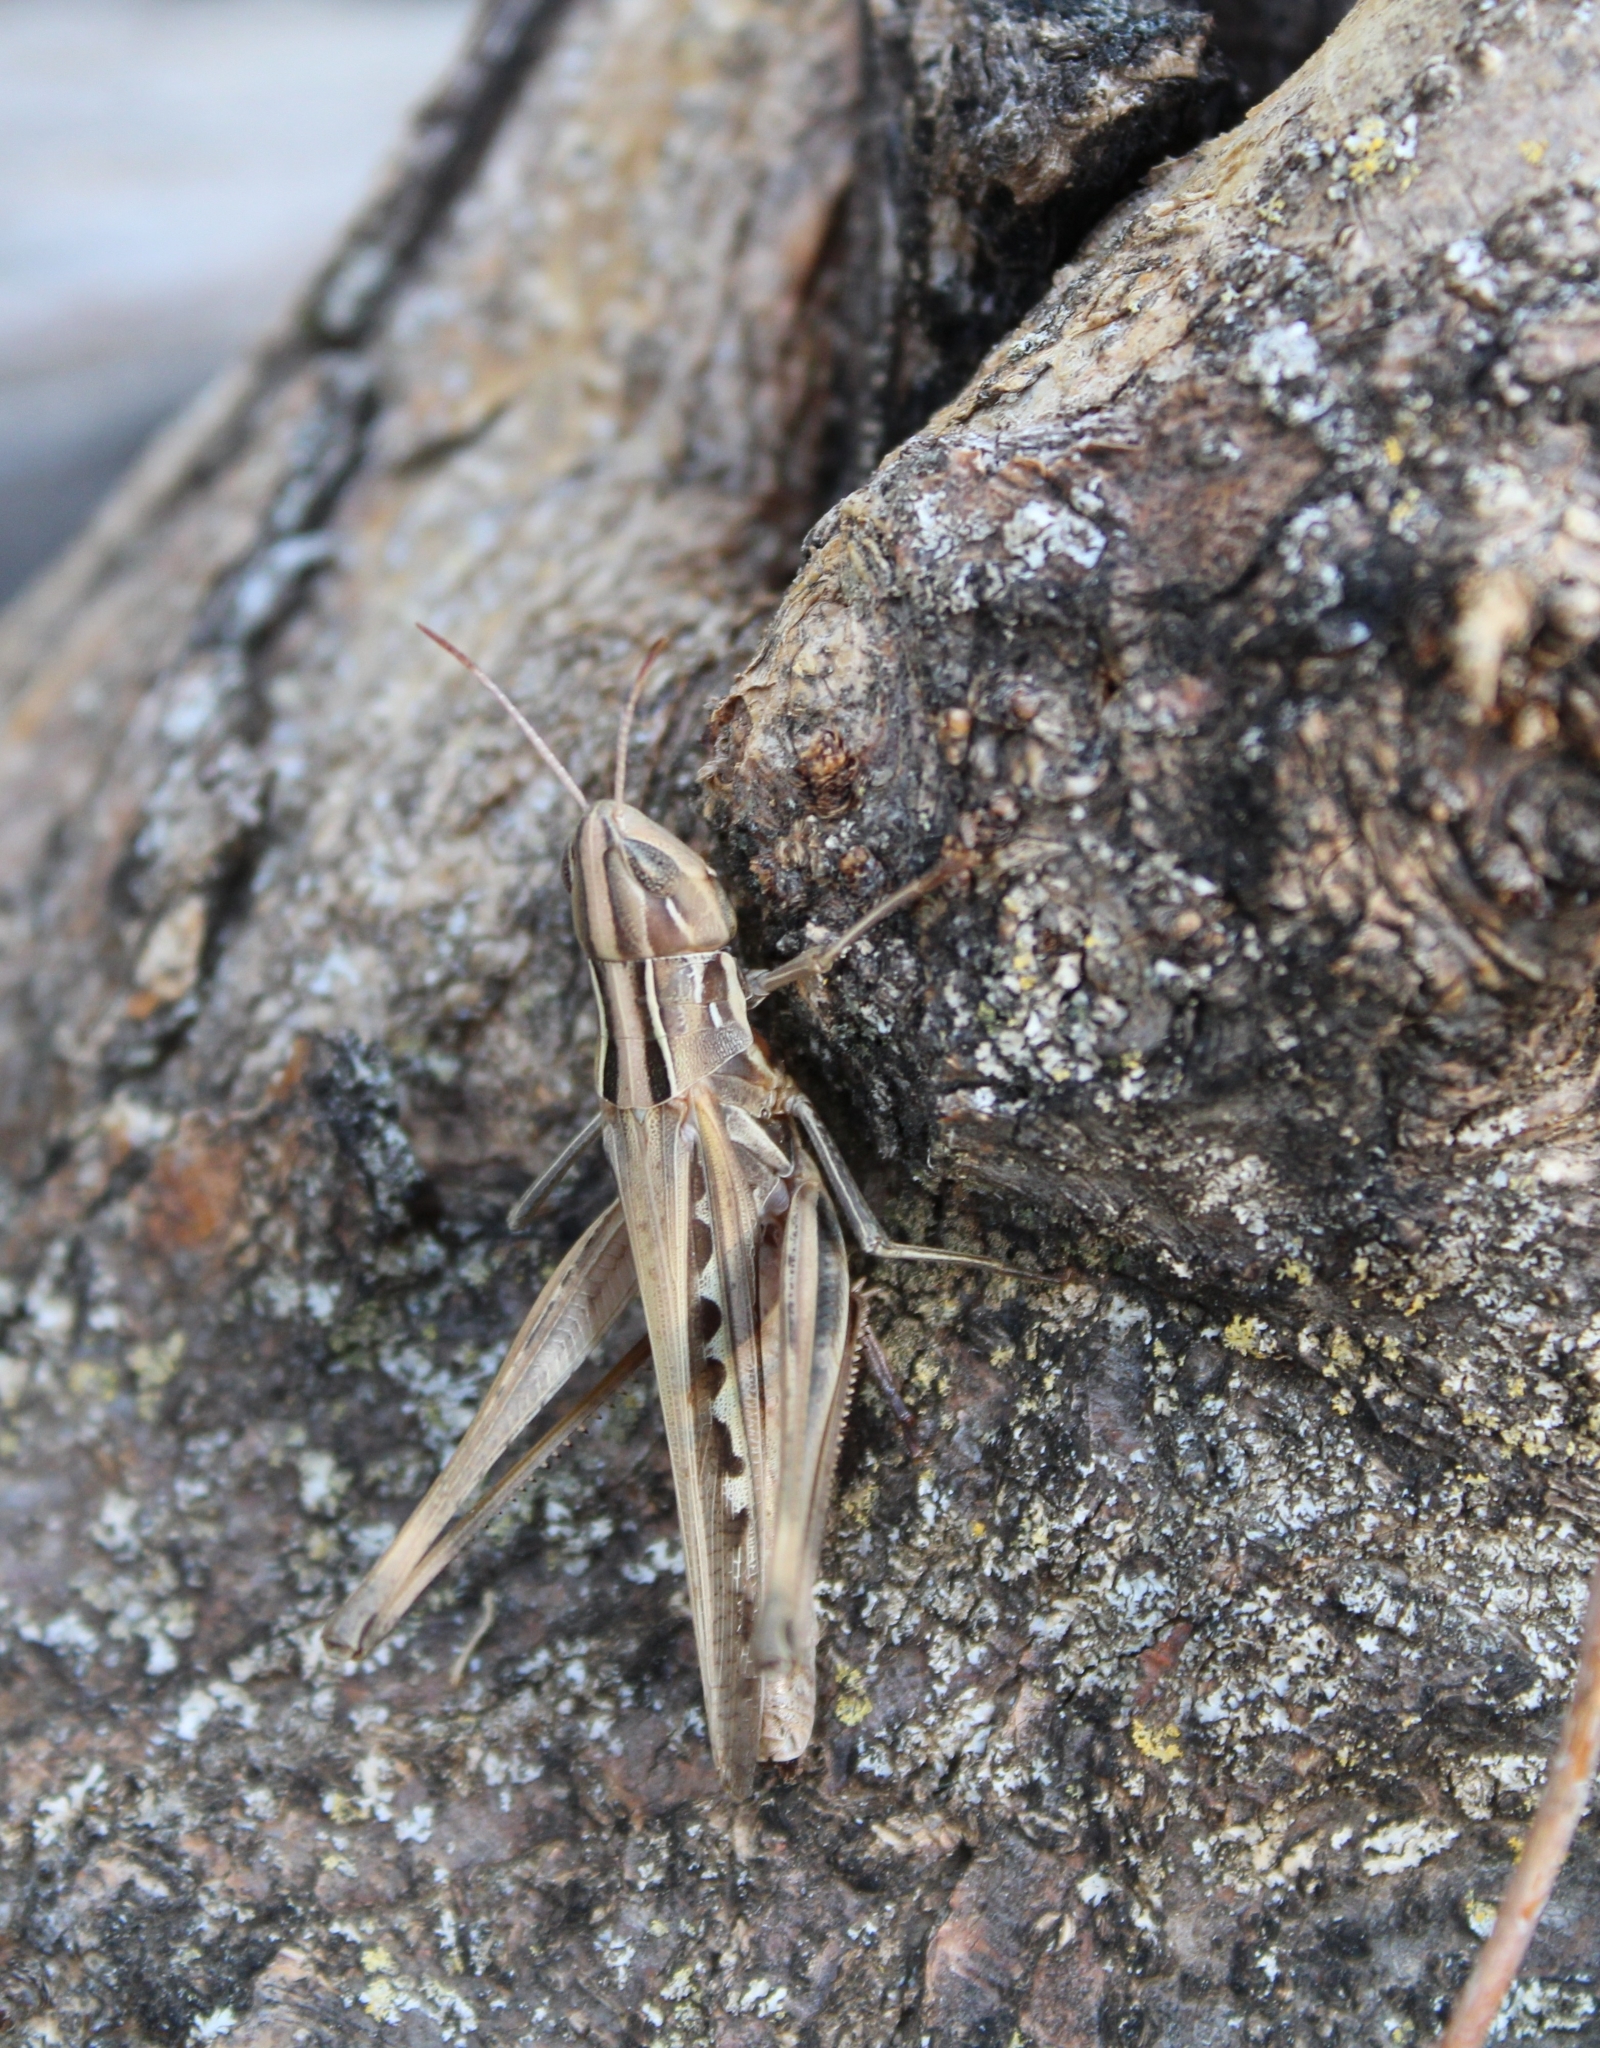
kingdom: Animalia
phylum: Arthropoda
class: Insecta
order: Orthoptera
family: Acrididae
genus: Syrbula
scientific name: Syrbula admirabilis
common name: Handsome grasshopper
